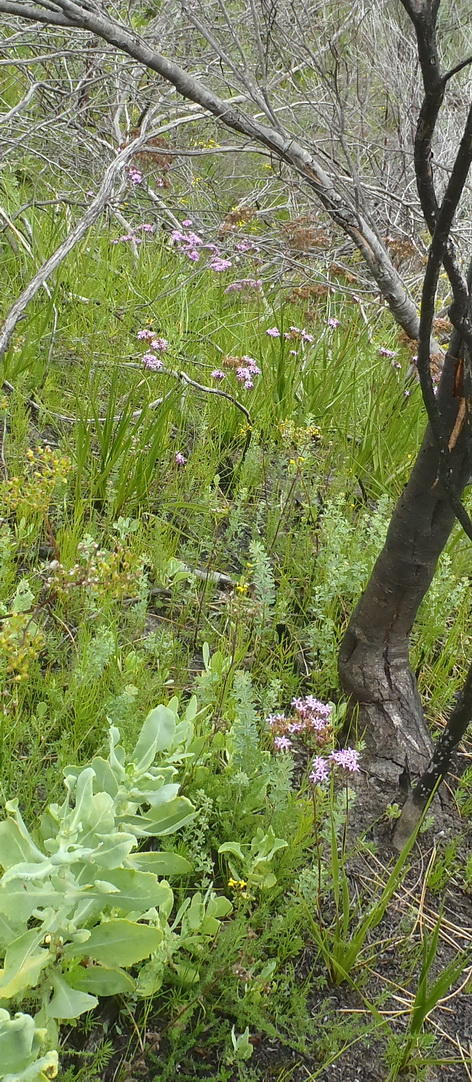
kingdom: Plantae
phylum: Tracheophyta
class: Magnoliopsida
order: Asterales
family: Asteraceae
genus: Corymbium
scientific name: Corymbium glabrum
